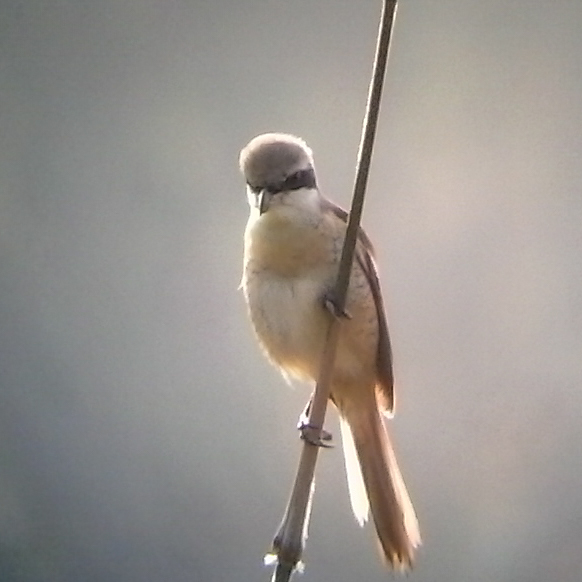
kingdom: Animalia
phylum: Chordata
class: Aves
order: Passeriformes
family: Laniidae
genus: Lanius
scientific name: Lanius cristatus
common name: Brown shrike
